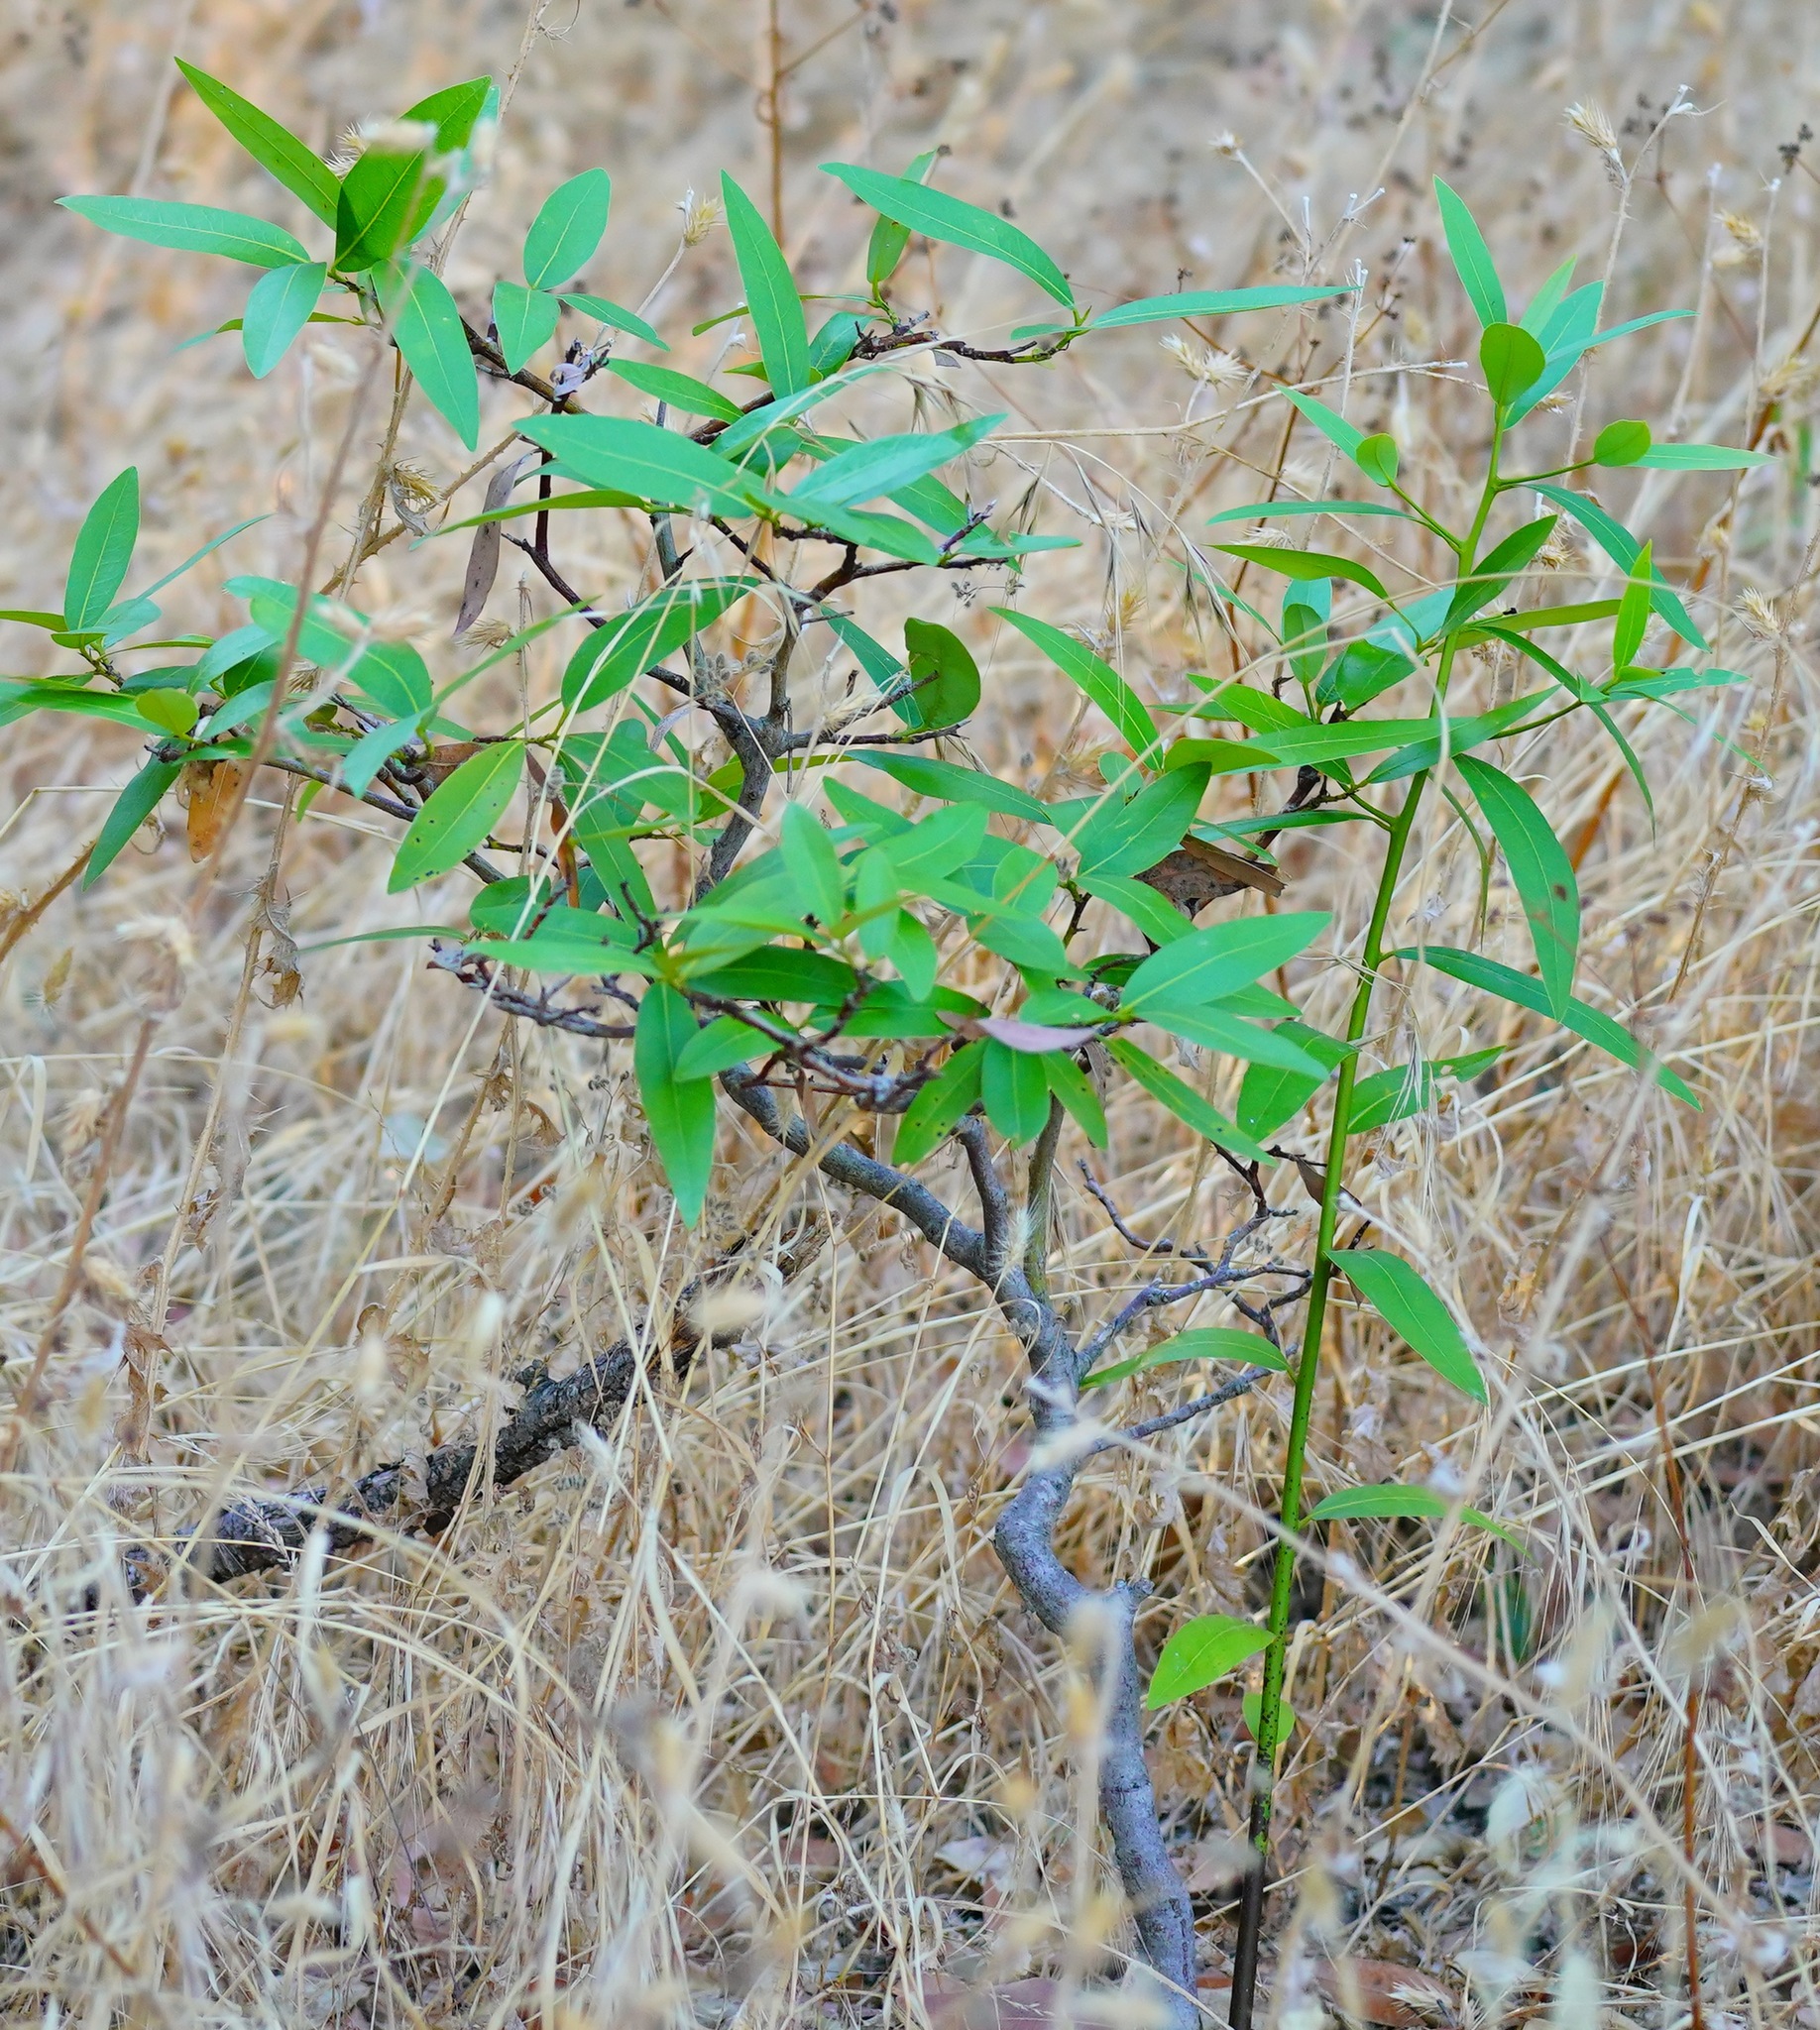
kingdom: Plantae
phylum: Tracheophyta
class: Magnoliopsida
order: Laurales
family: Lauraceae
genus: Umbellularia
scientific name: Umbellularia californica
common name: California bay
